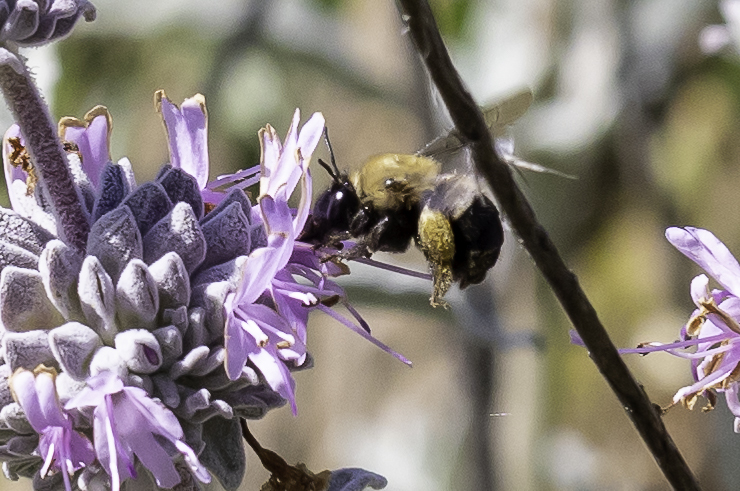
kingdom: Animalia
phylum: Arthropoda
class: Insecta
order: Hymenoptera
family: Apidae
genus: Habropoda
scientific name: Habropoda tristissima
